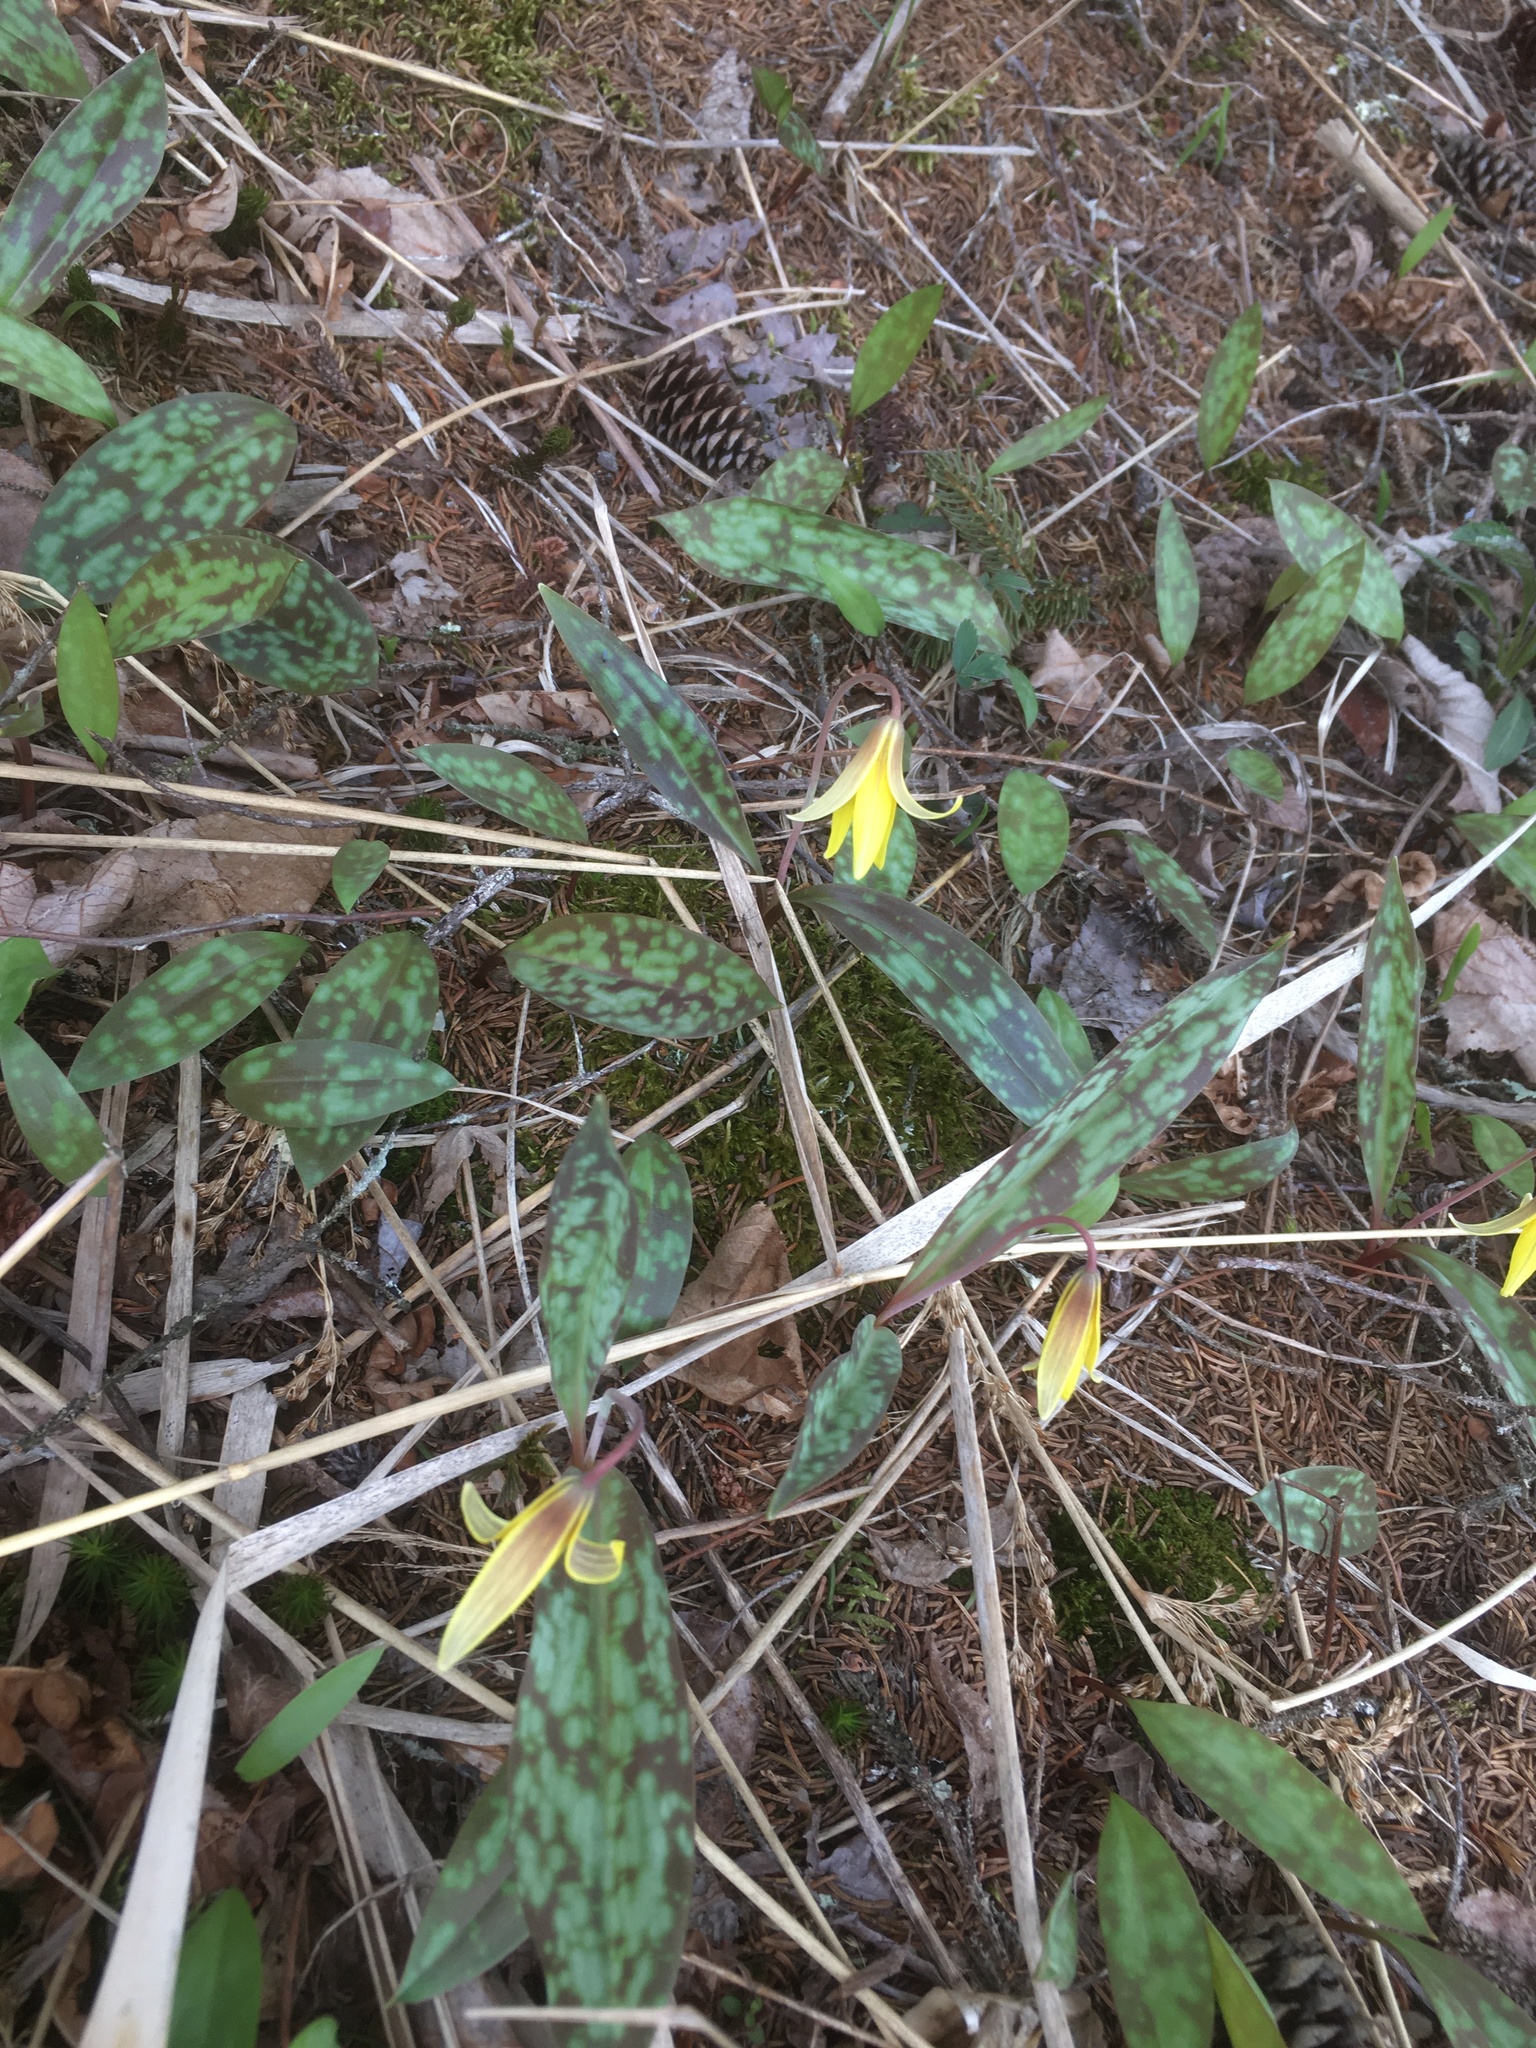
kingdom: Plantae
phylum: Tracheophyta
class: Liliopsida
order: Liliales
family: Liliaceae
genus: Erythronium
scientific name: Erythronium americanum
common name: Yellow adder's-tongue
